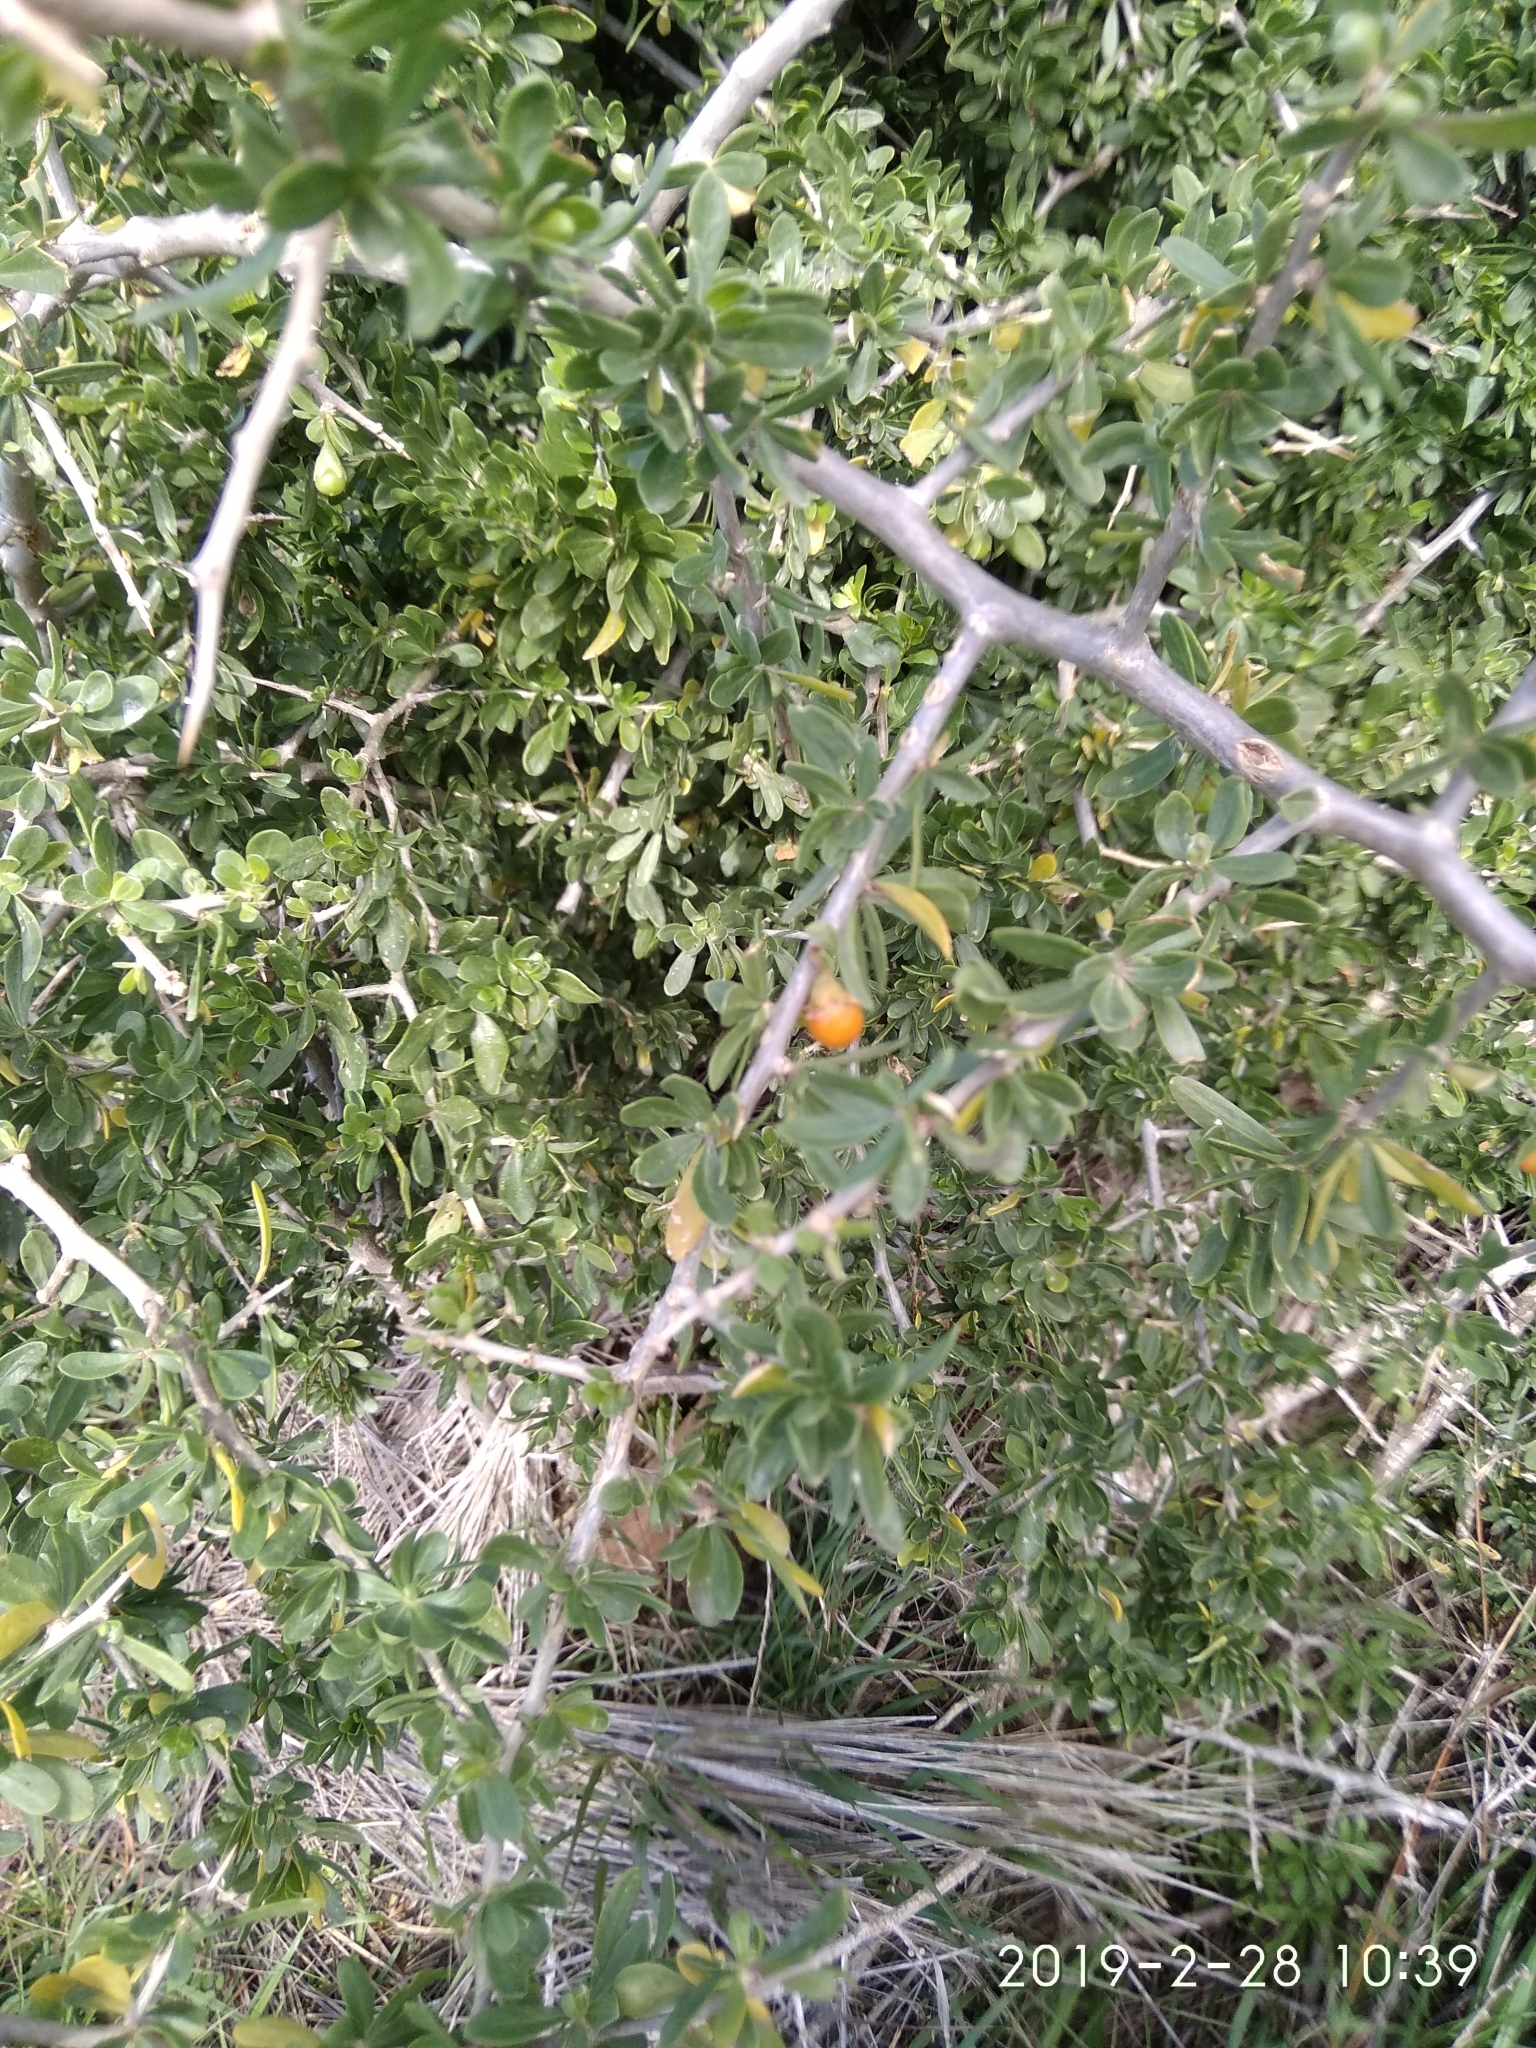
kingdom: Plantae
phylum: Tracheophyta
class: Magnoliopsida
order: Solanales
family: Solanaceae
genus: Lycium
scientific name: Lycium ferocissimum
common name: African boxthorn
